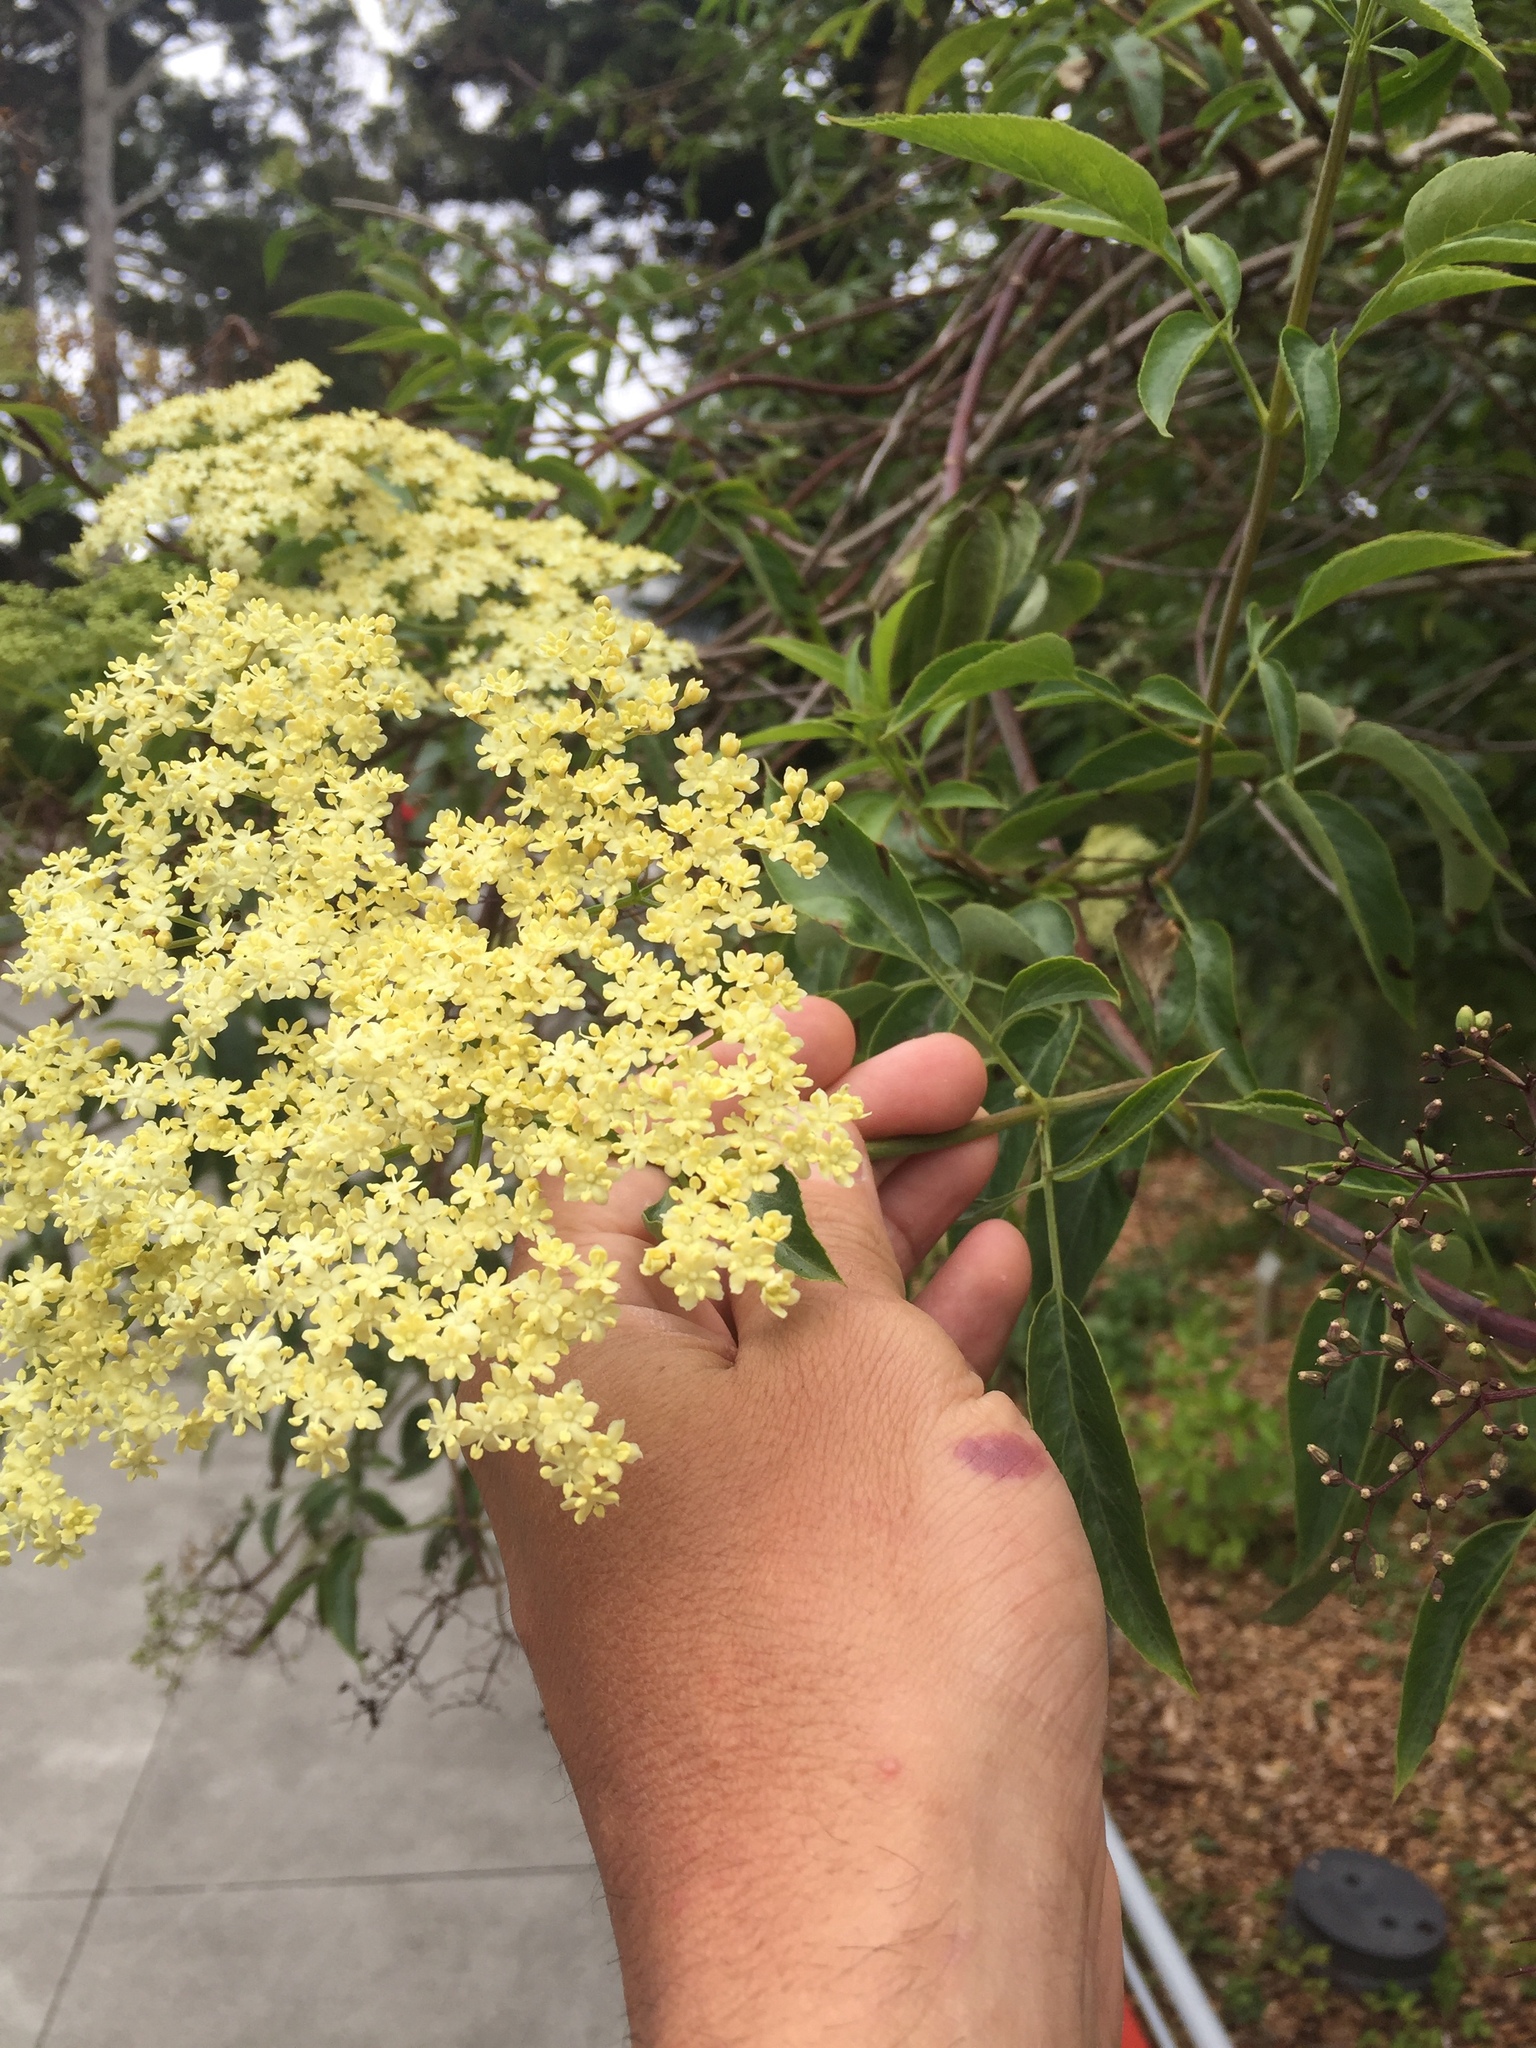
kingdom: Plantae
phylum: Tracheophyta
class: Magnoliopsida
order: Dipsacales
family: Viburnaceae
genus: Sambucus
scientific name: Sambucus cerulea
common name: Blue elder
